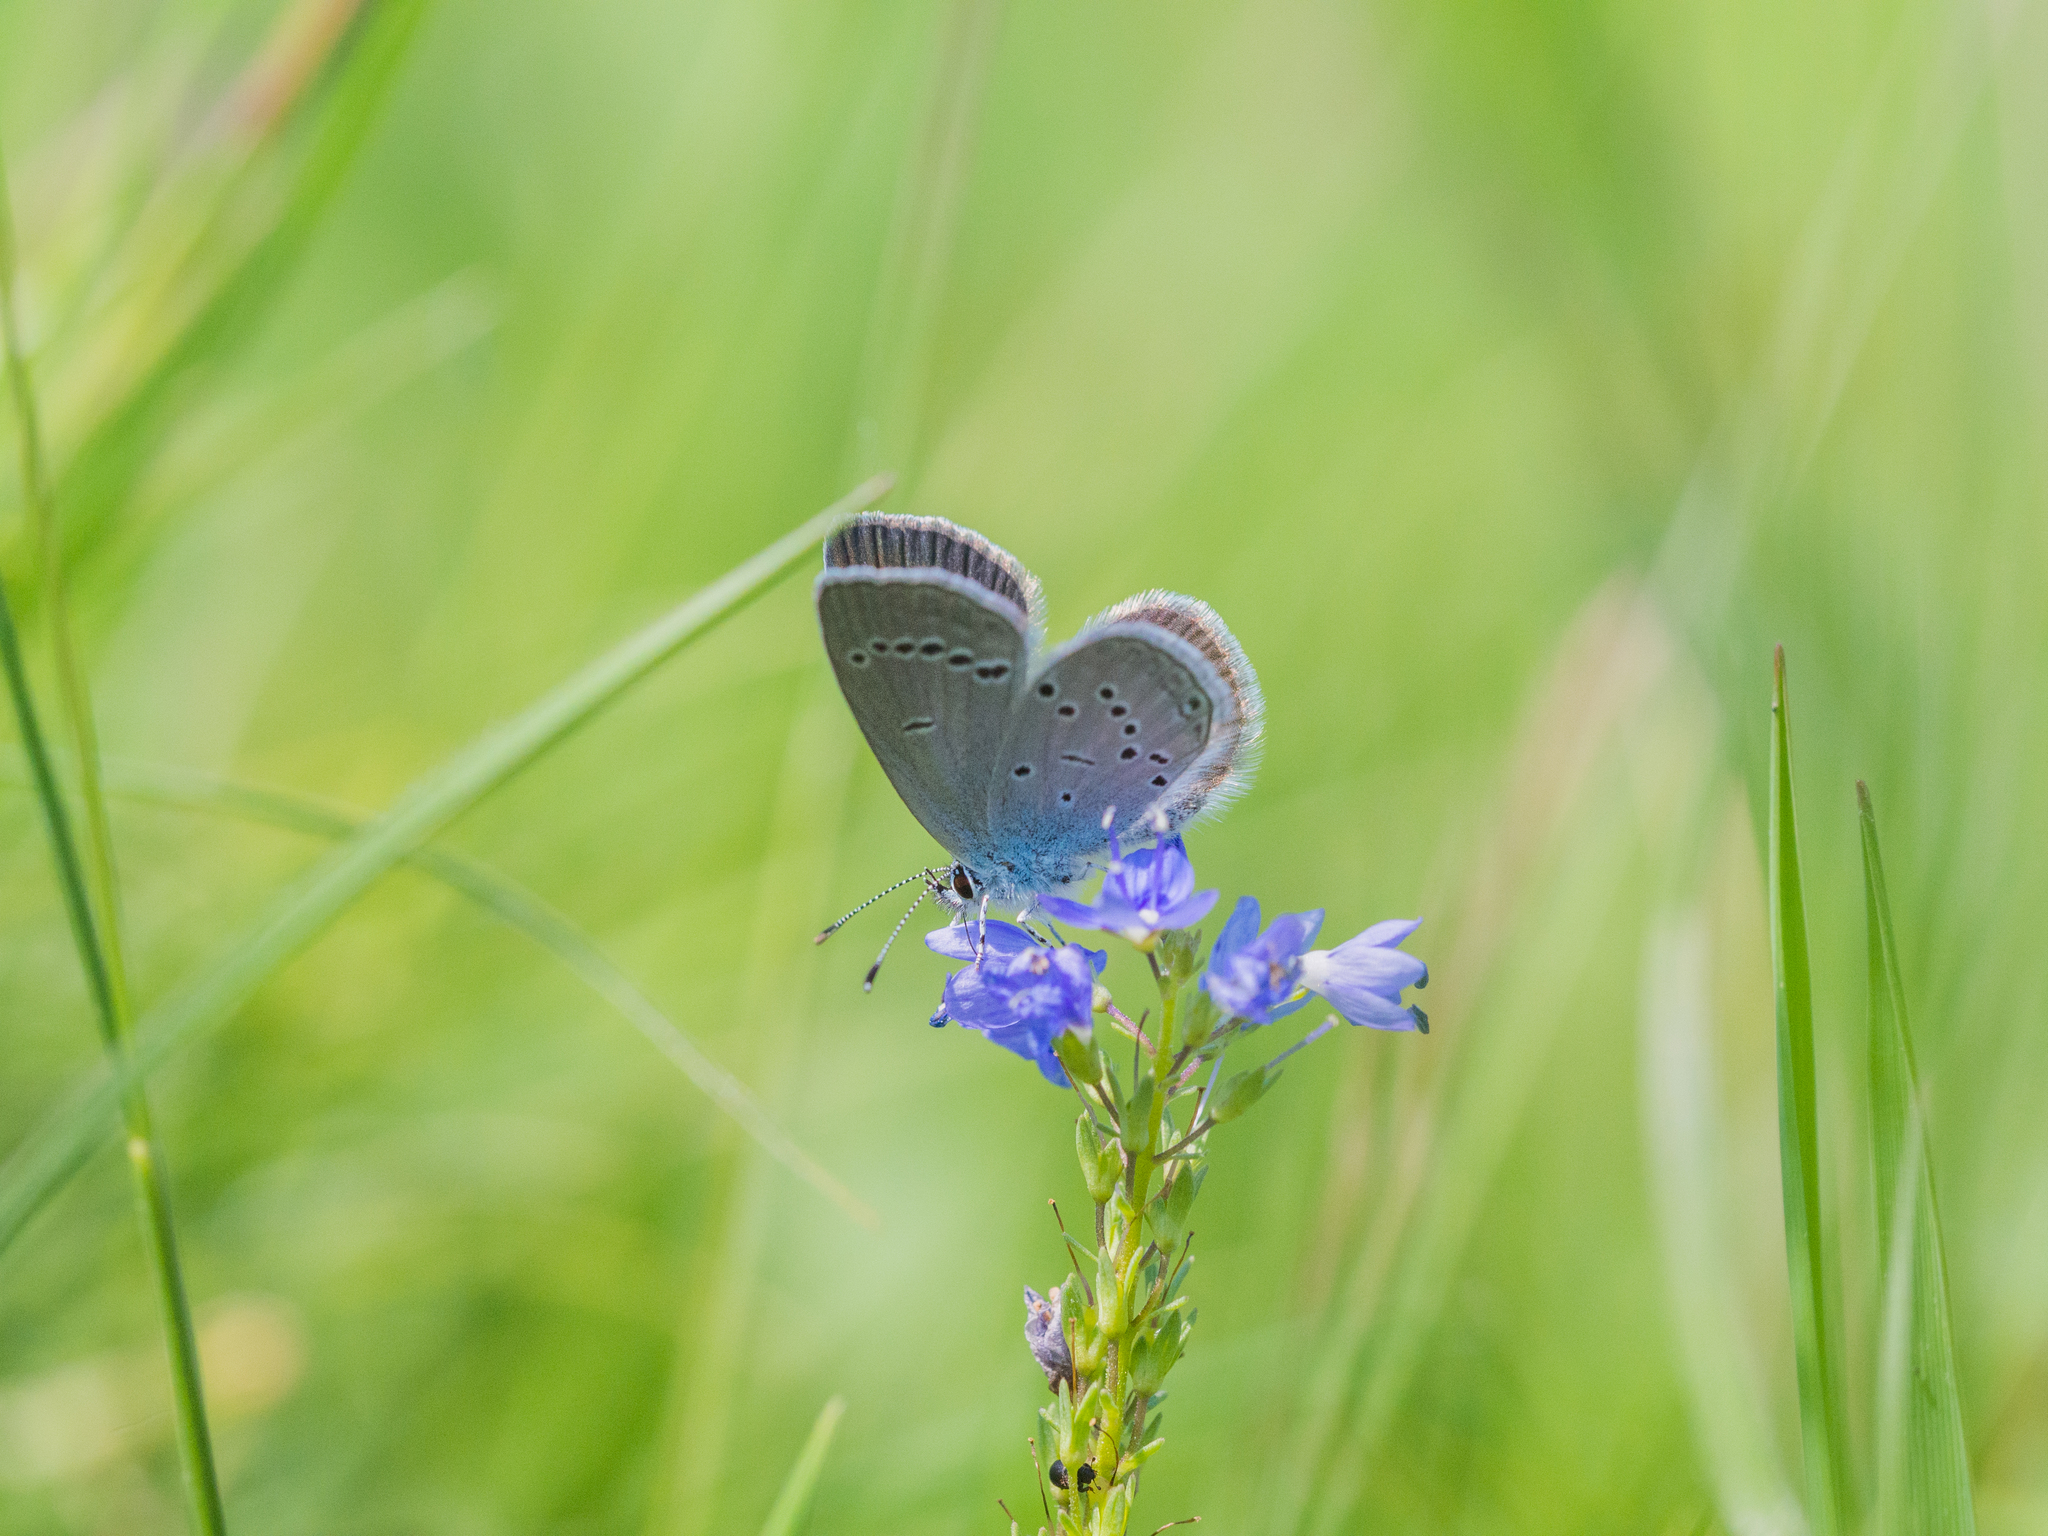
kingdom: Animalia
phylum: Arthropoda
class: Insecta
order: Lepidoptera
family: Lycaenidae
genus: Cupido
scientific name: Cupido minimus
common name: Small blue
